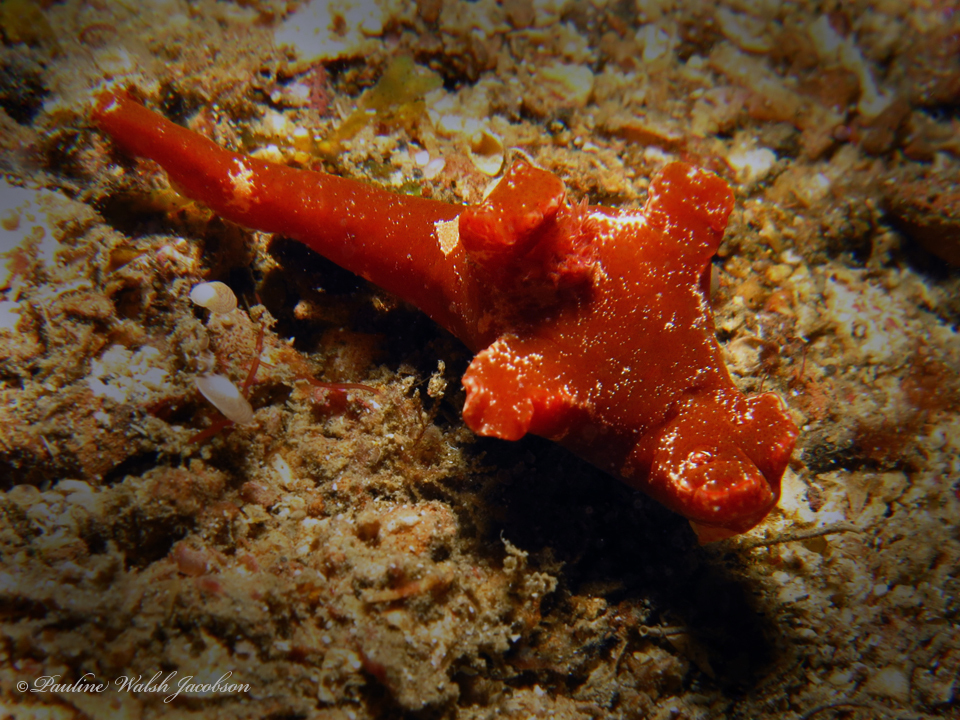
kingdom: Animalia
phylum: Mollusca
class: Gastropoda
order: Nudibranchia
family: Chromodorididae
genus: Ceratosoma
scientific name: Ceratosoma gracillimum
